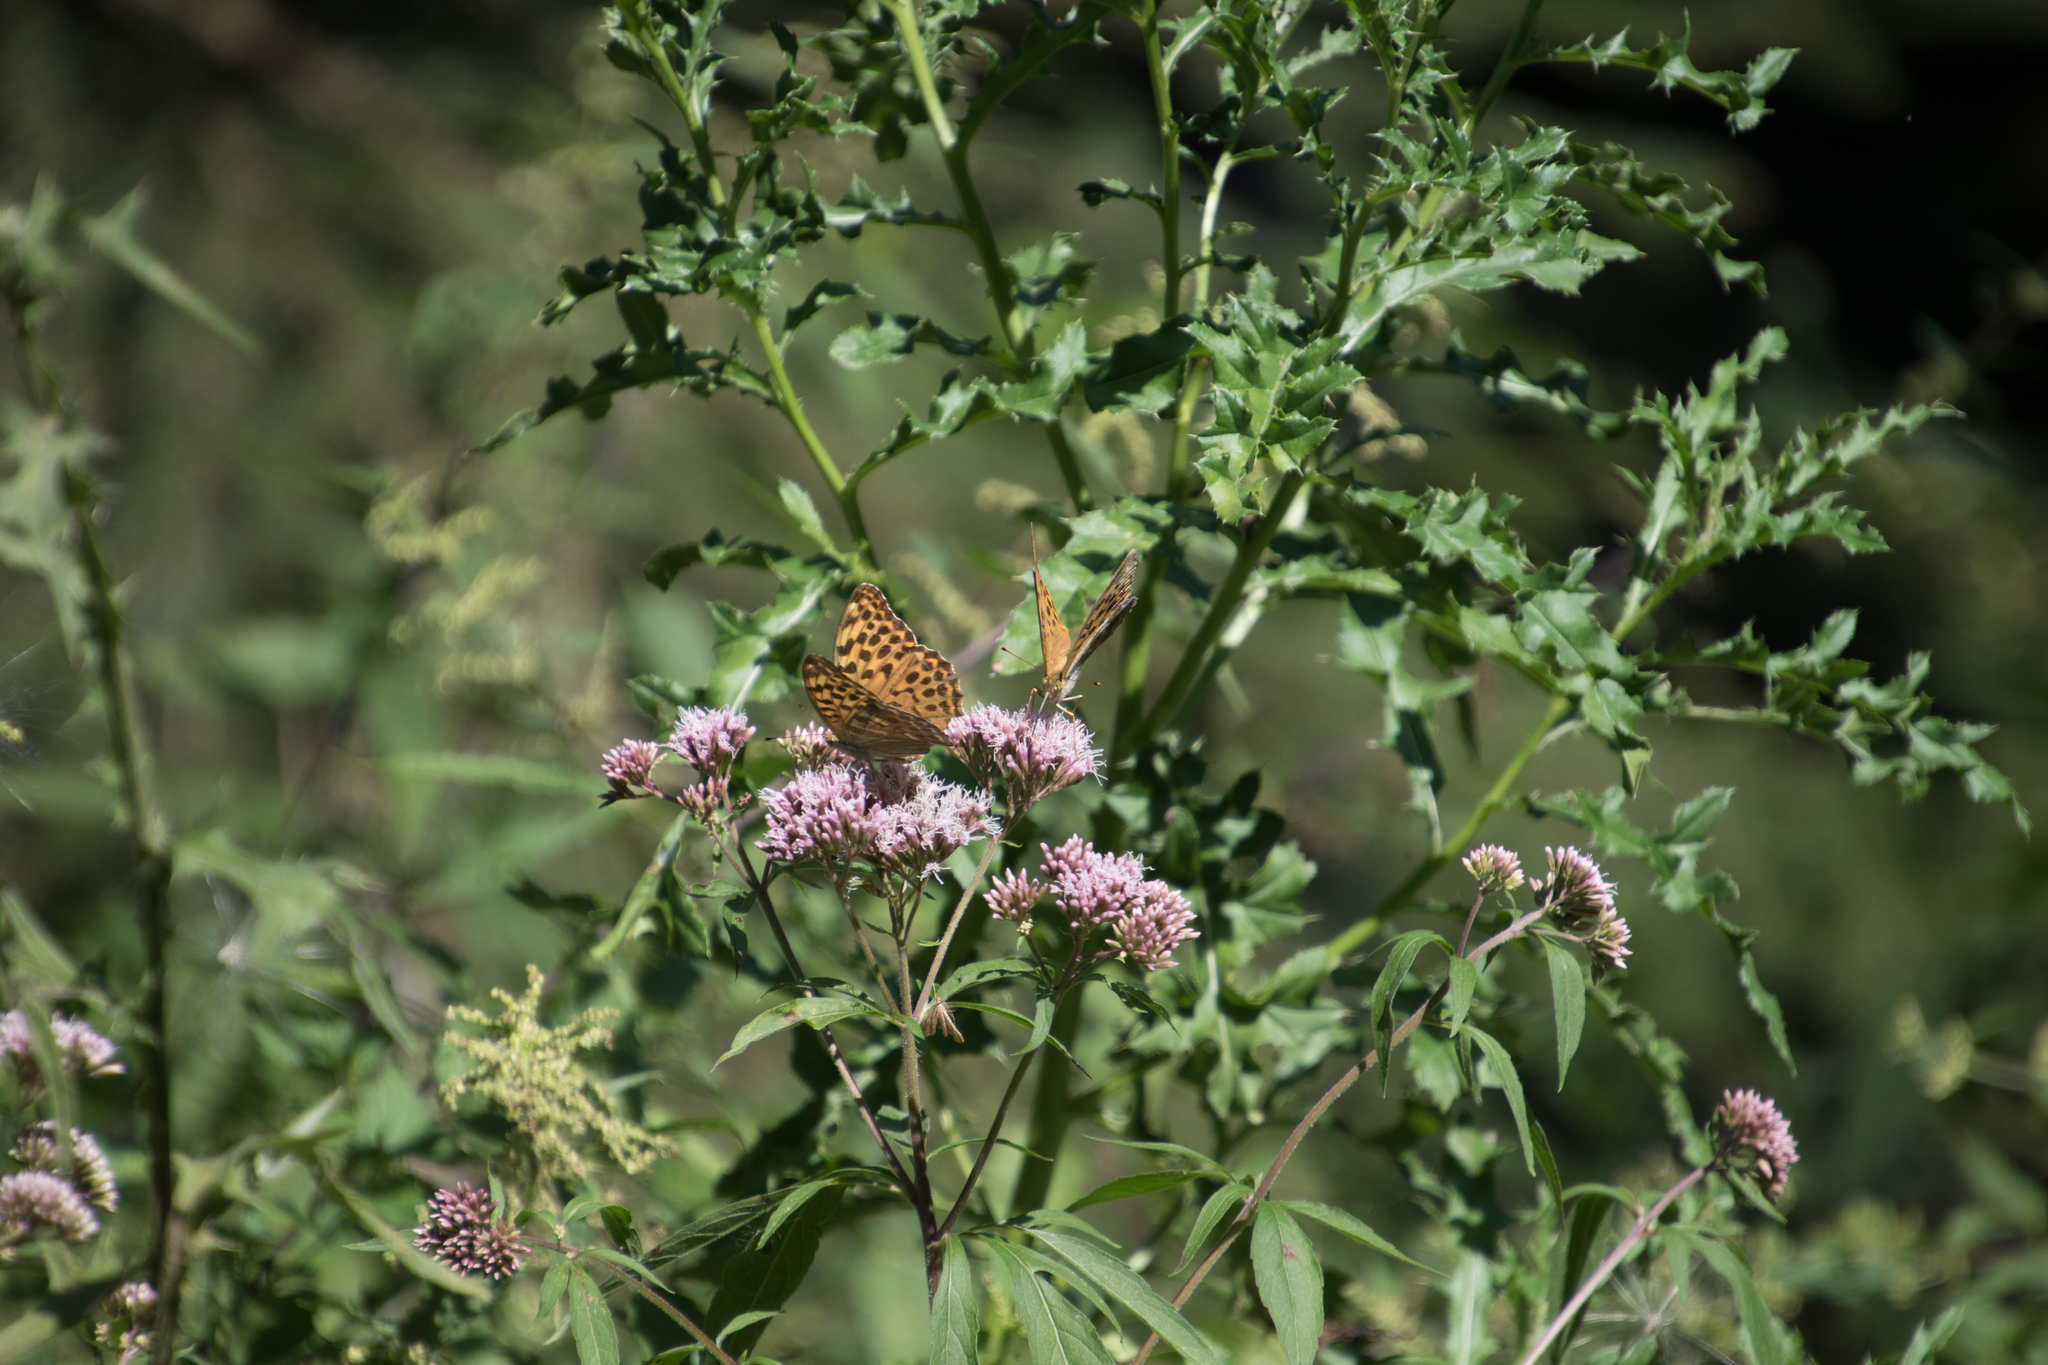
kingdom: Animalia
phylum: Arthropoda
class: Insecta
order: Lepidoptera
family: Nymphalidae
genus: Argynnis
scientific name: Argynnis paphia
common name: Silver-washed fritillary
